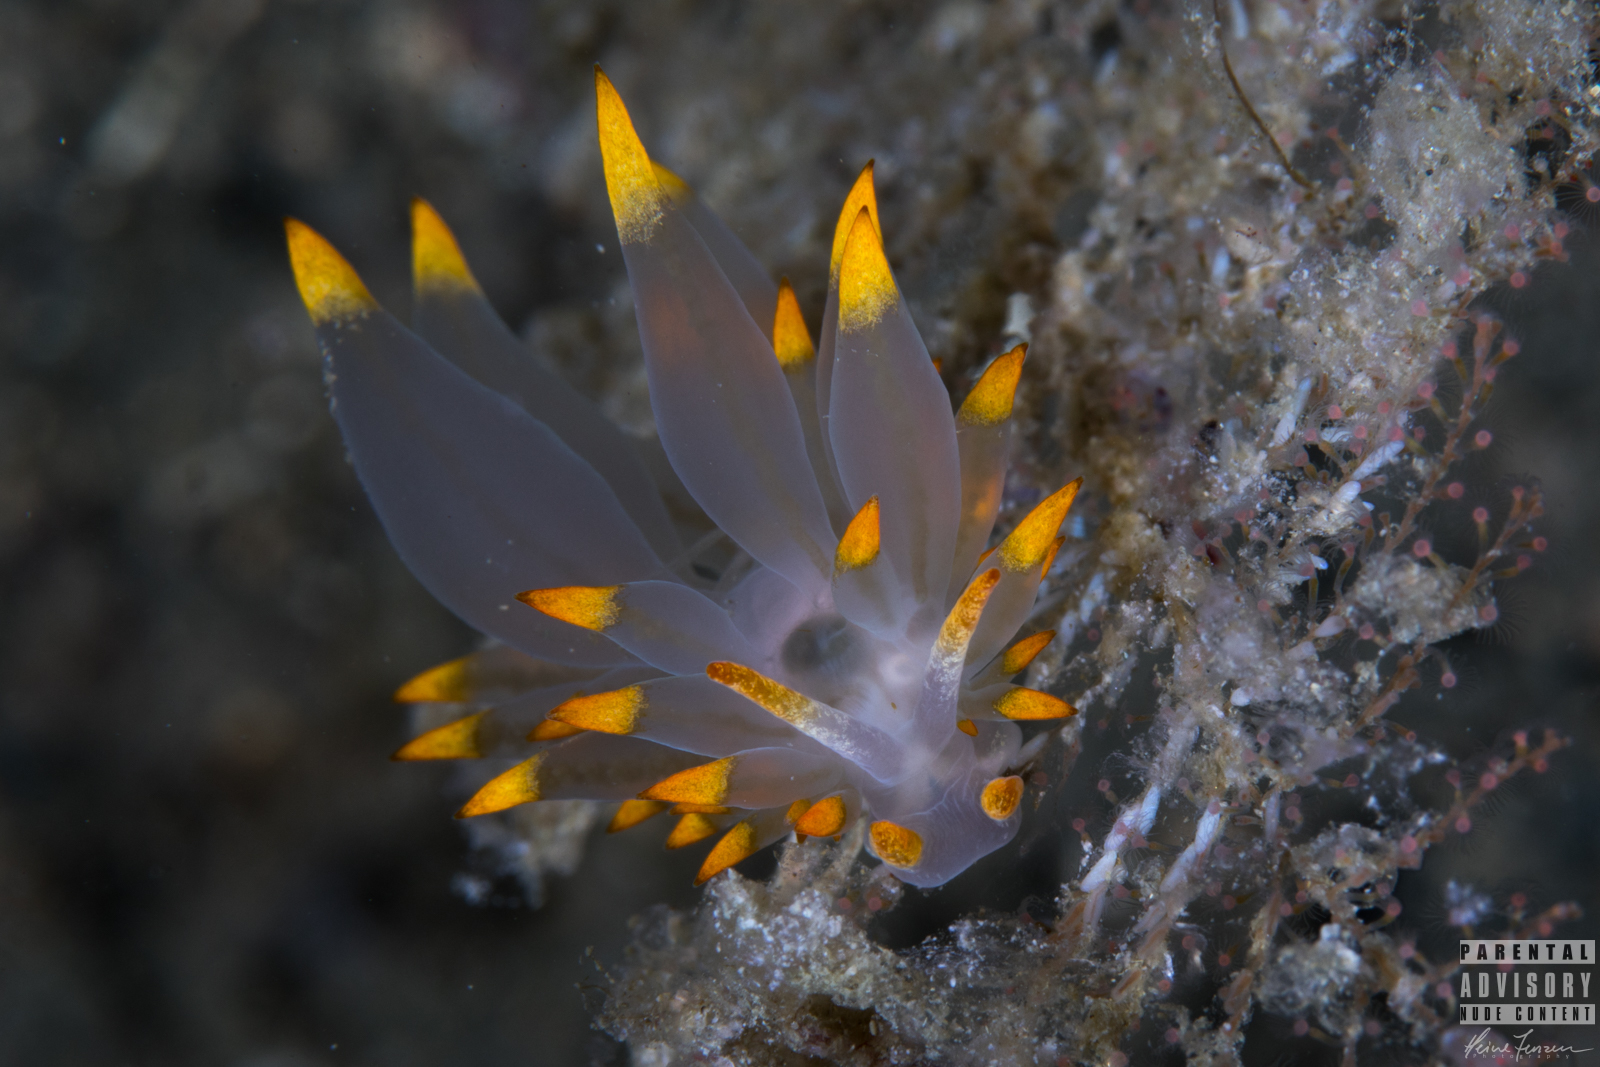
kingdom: Animalia
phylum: Mollusca
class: Gastropoda
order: Nudibranchia
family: Eubranchidae
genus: Amphorina
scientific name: Amphorina farrani
